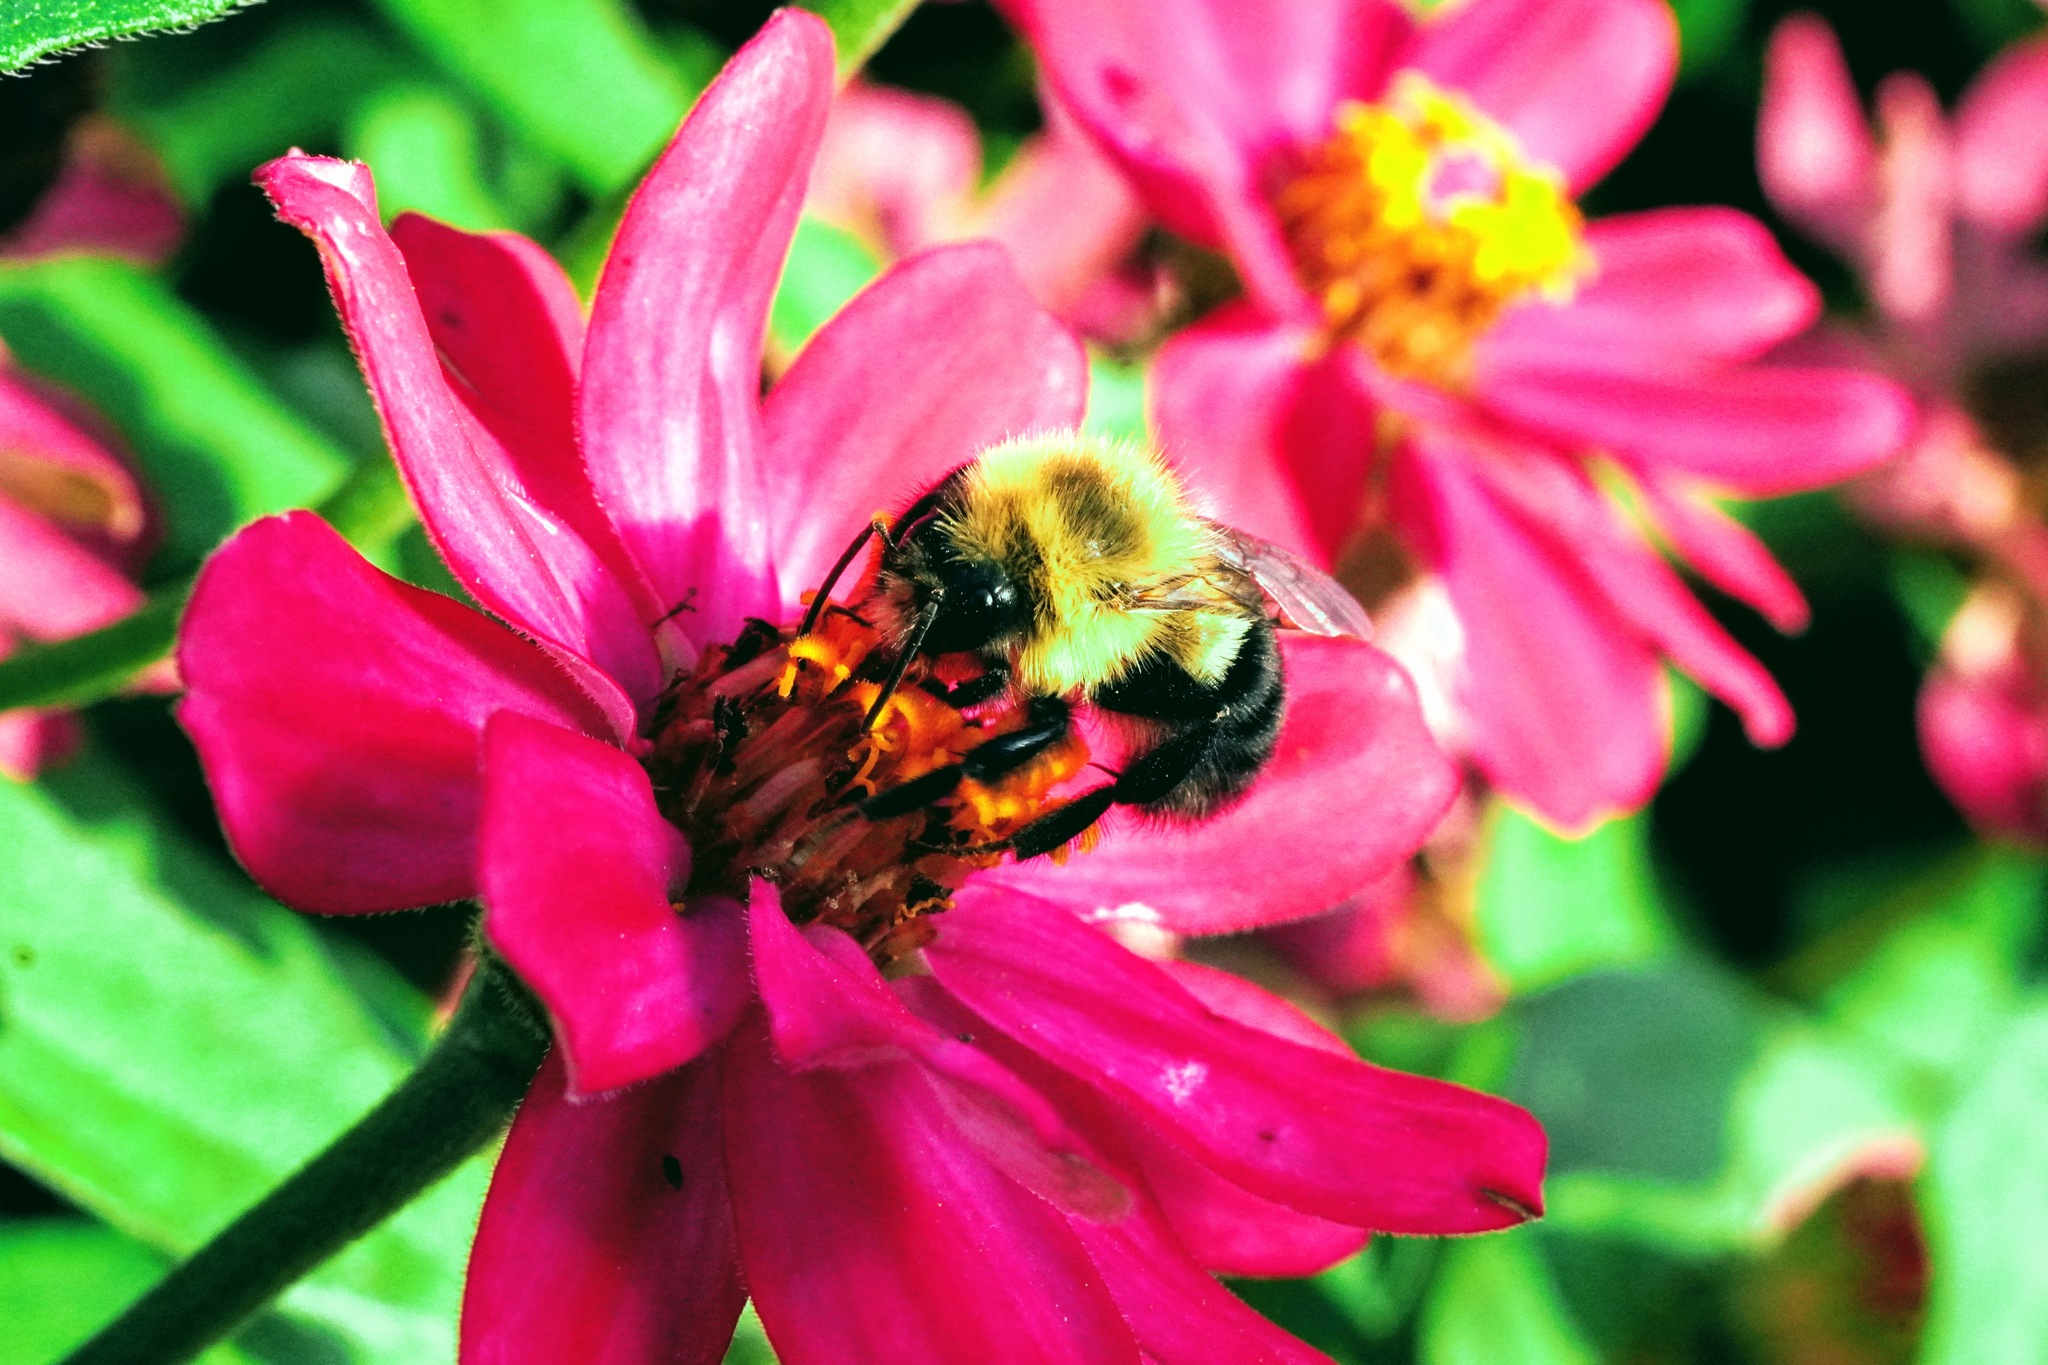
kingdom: Animalia
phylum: Arthropoda
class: Insecta
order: Hymenoptera
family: Apidae
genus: Bombus
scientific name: Bombus impatiens
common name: Common eastern bumble bee
